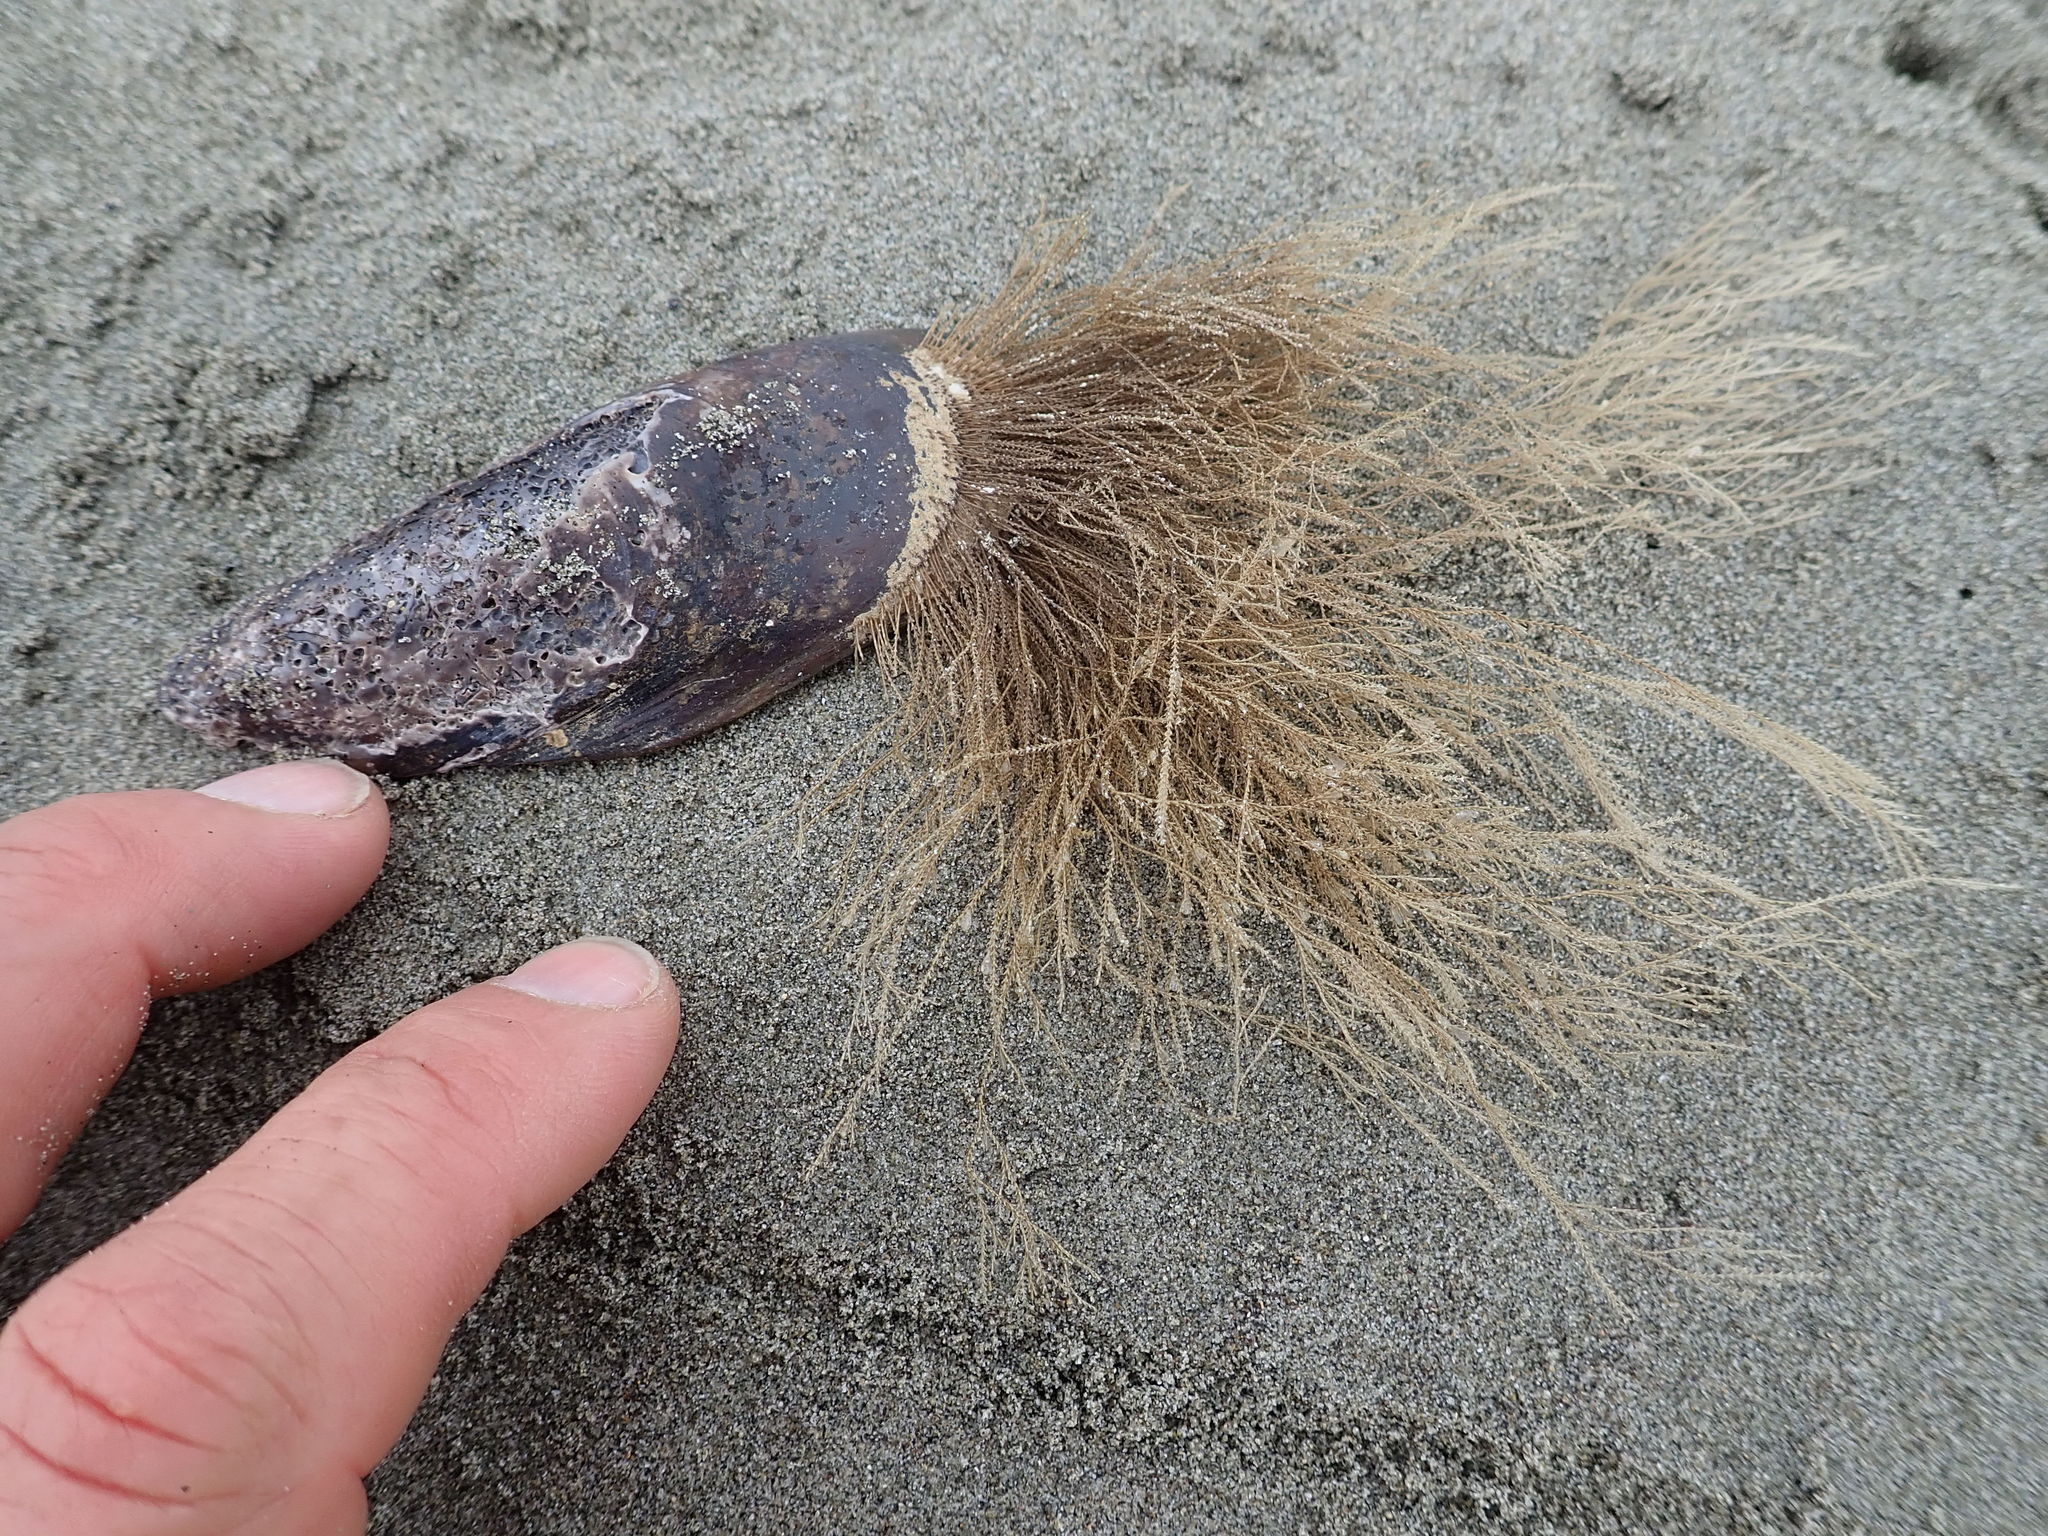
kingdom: Animalia
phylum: Cnidaria
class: Hydrozoa
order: Leptothecata
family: Sertulariidae
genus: Amphisbetia
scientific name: Amphisbetia bispinosa
